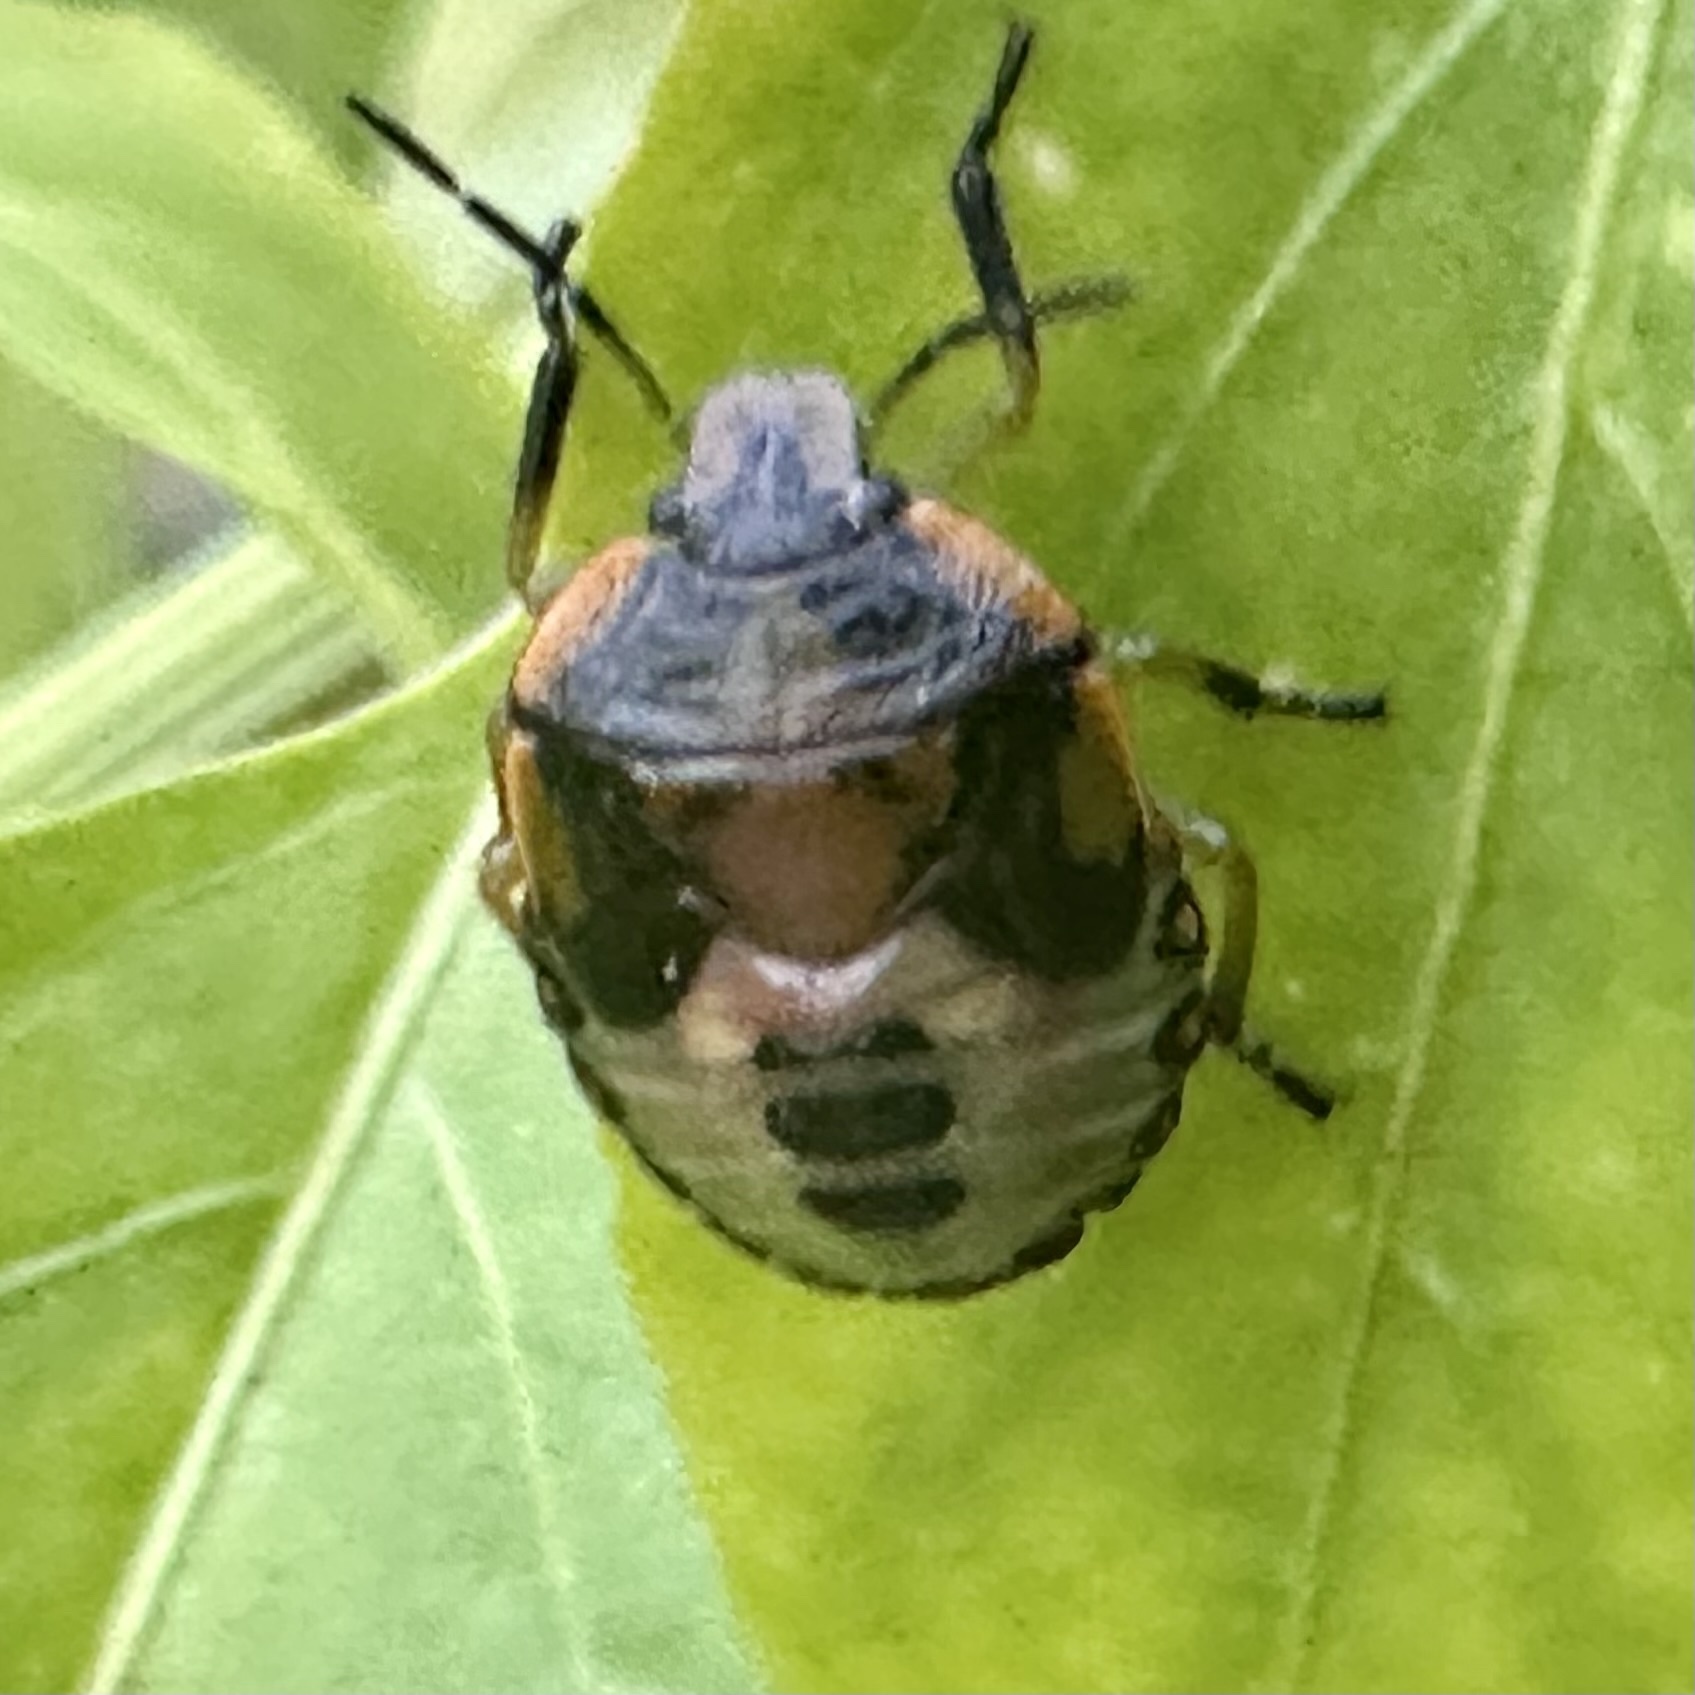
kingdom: Animalia
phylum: Arthropoda
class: Insecta
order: Hemiptera
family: Pentatomidae
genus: Chinavia
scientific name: Chinavia hilaris
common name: Green stink bug
